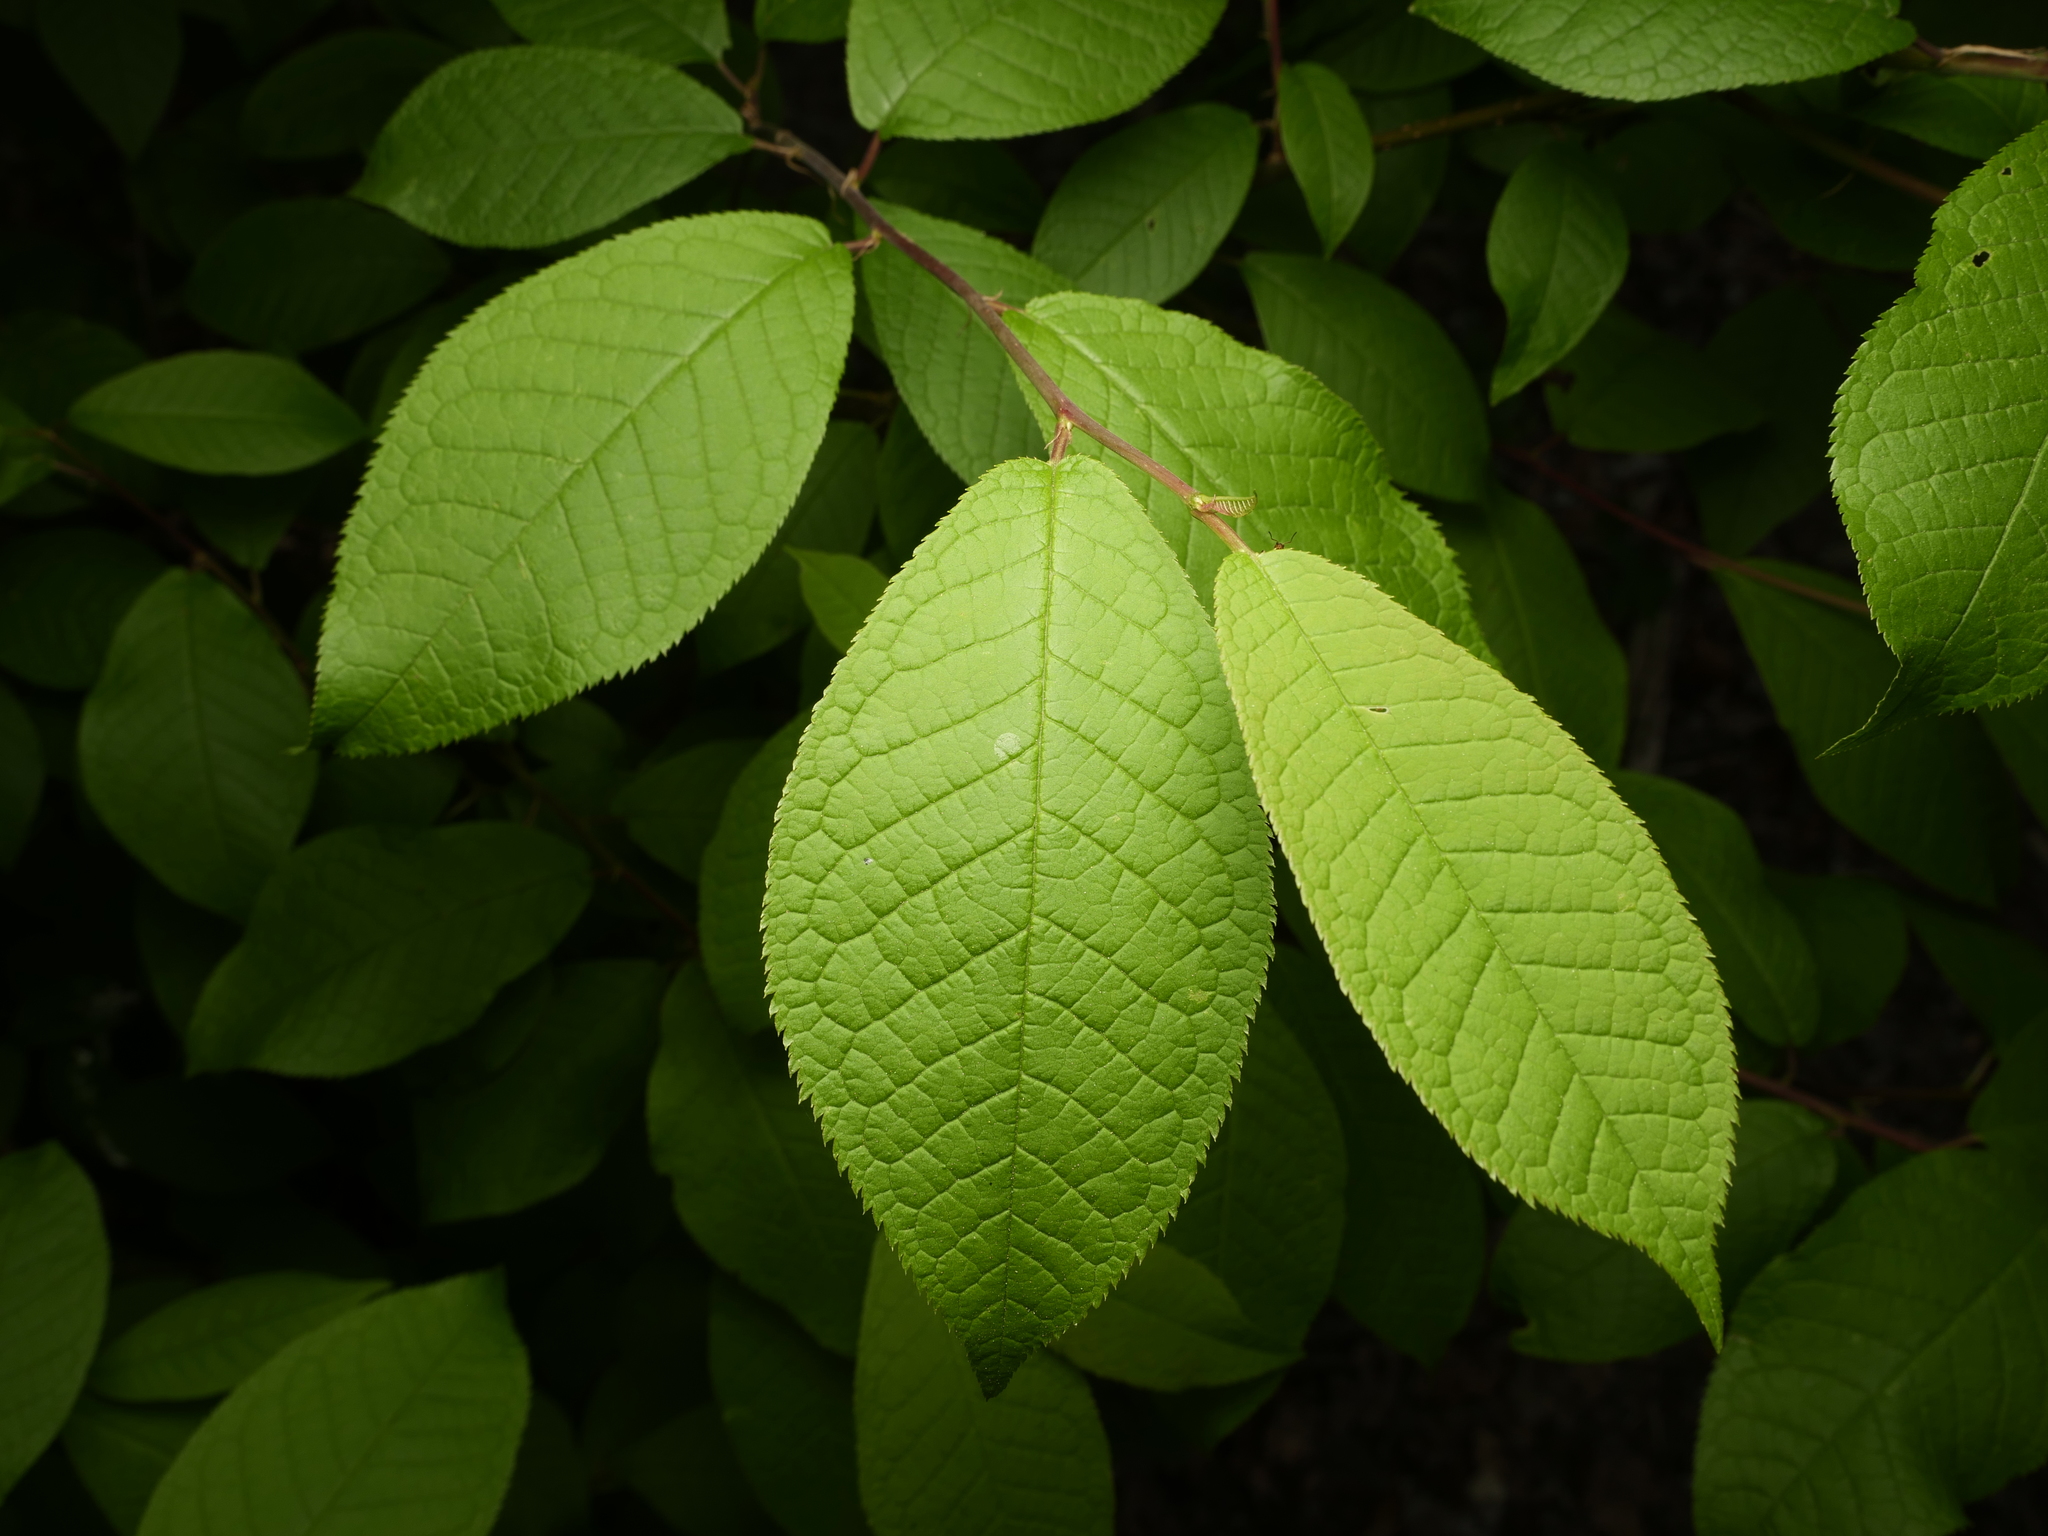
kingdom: Plantae
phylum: Tracheophyta
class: Magnoliopsida
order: Rosales
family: Rosaceae
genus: Prunus
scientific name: Prunus padus
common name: Bird cherry
